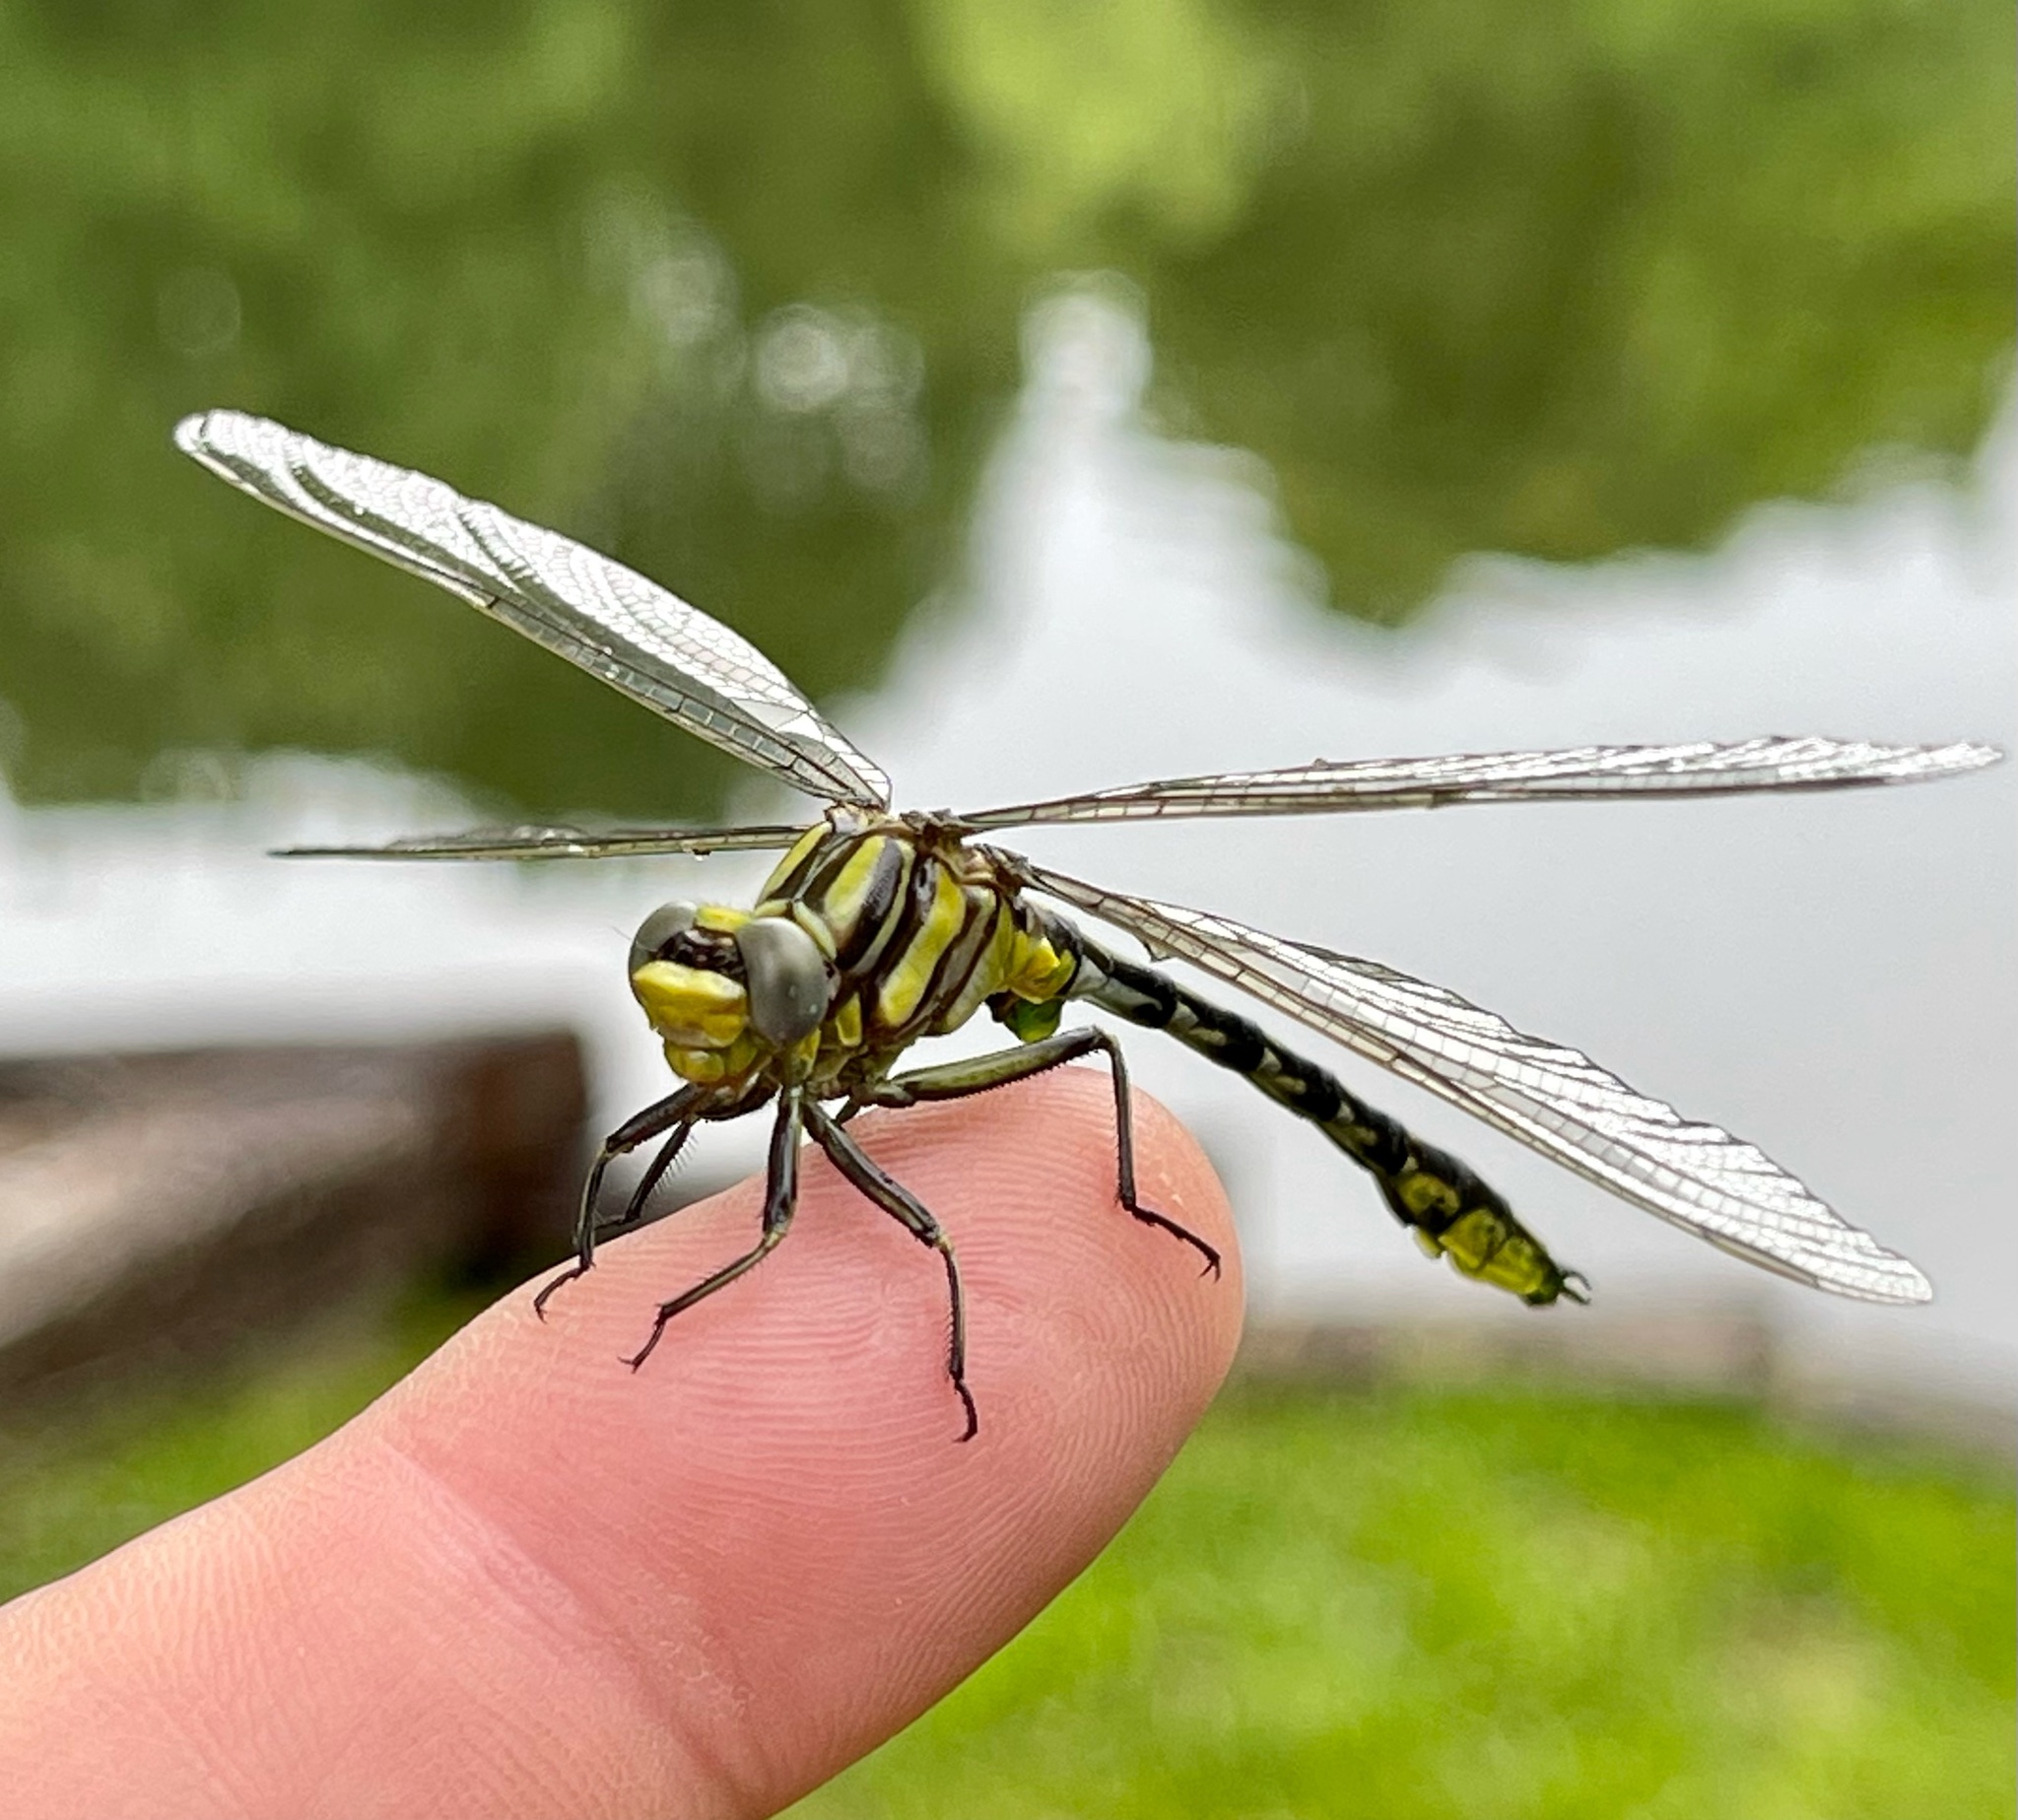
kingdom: Animalia
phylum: Arthropoda
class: Insecta
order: Odonata
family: Gomphidae
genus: Phanogomphus
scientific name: Phanogomphus graslinellus
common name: Pronghorn clubtail
